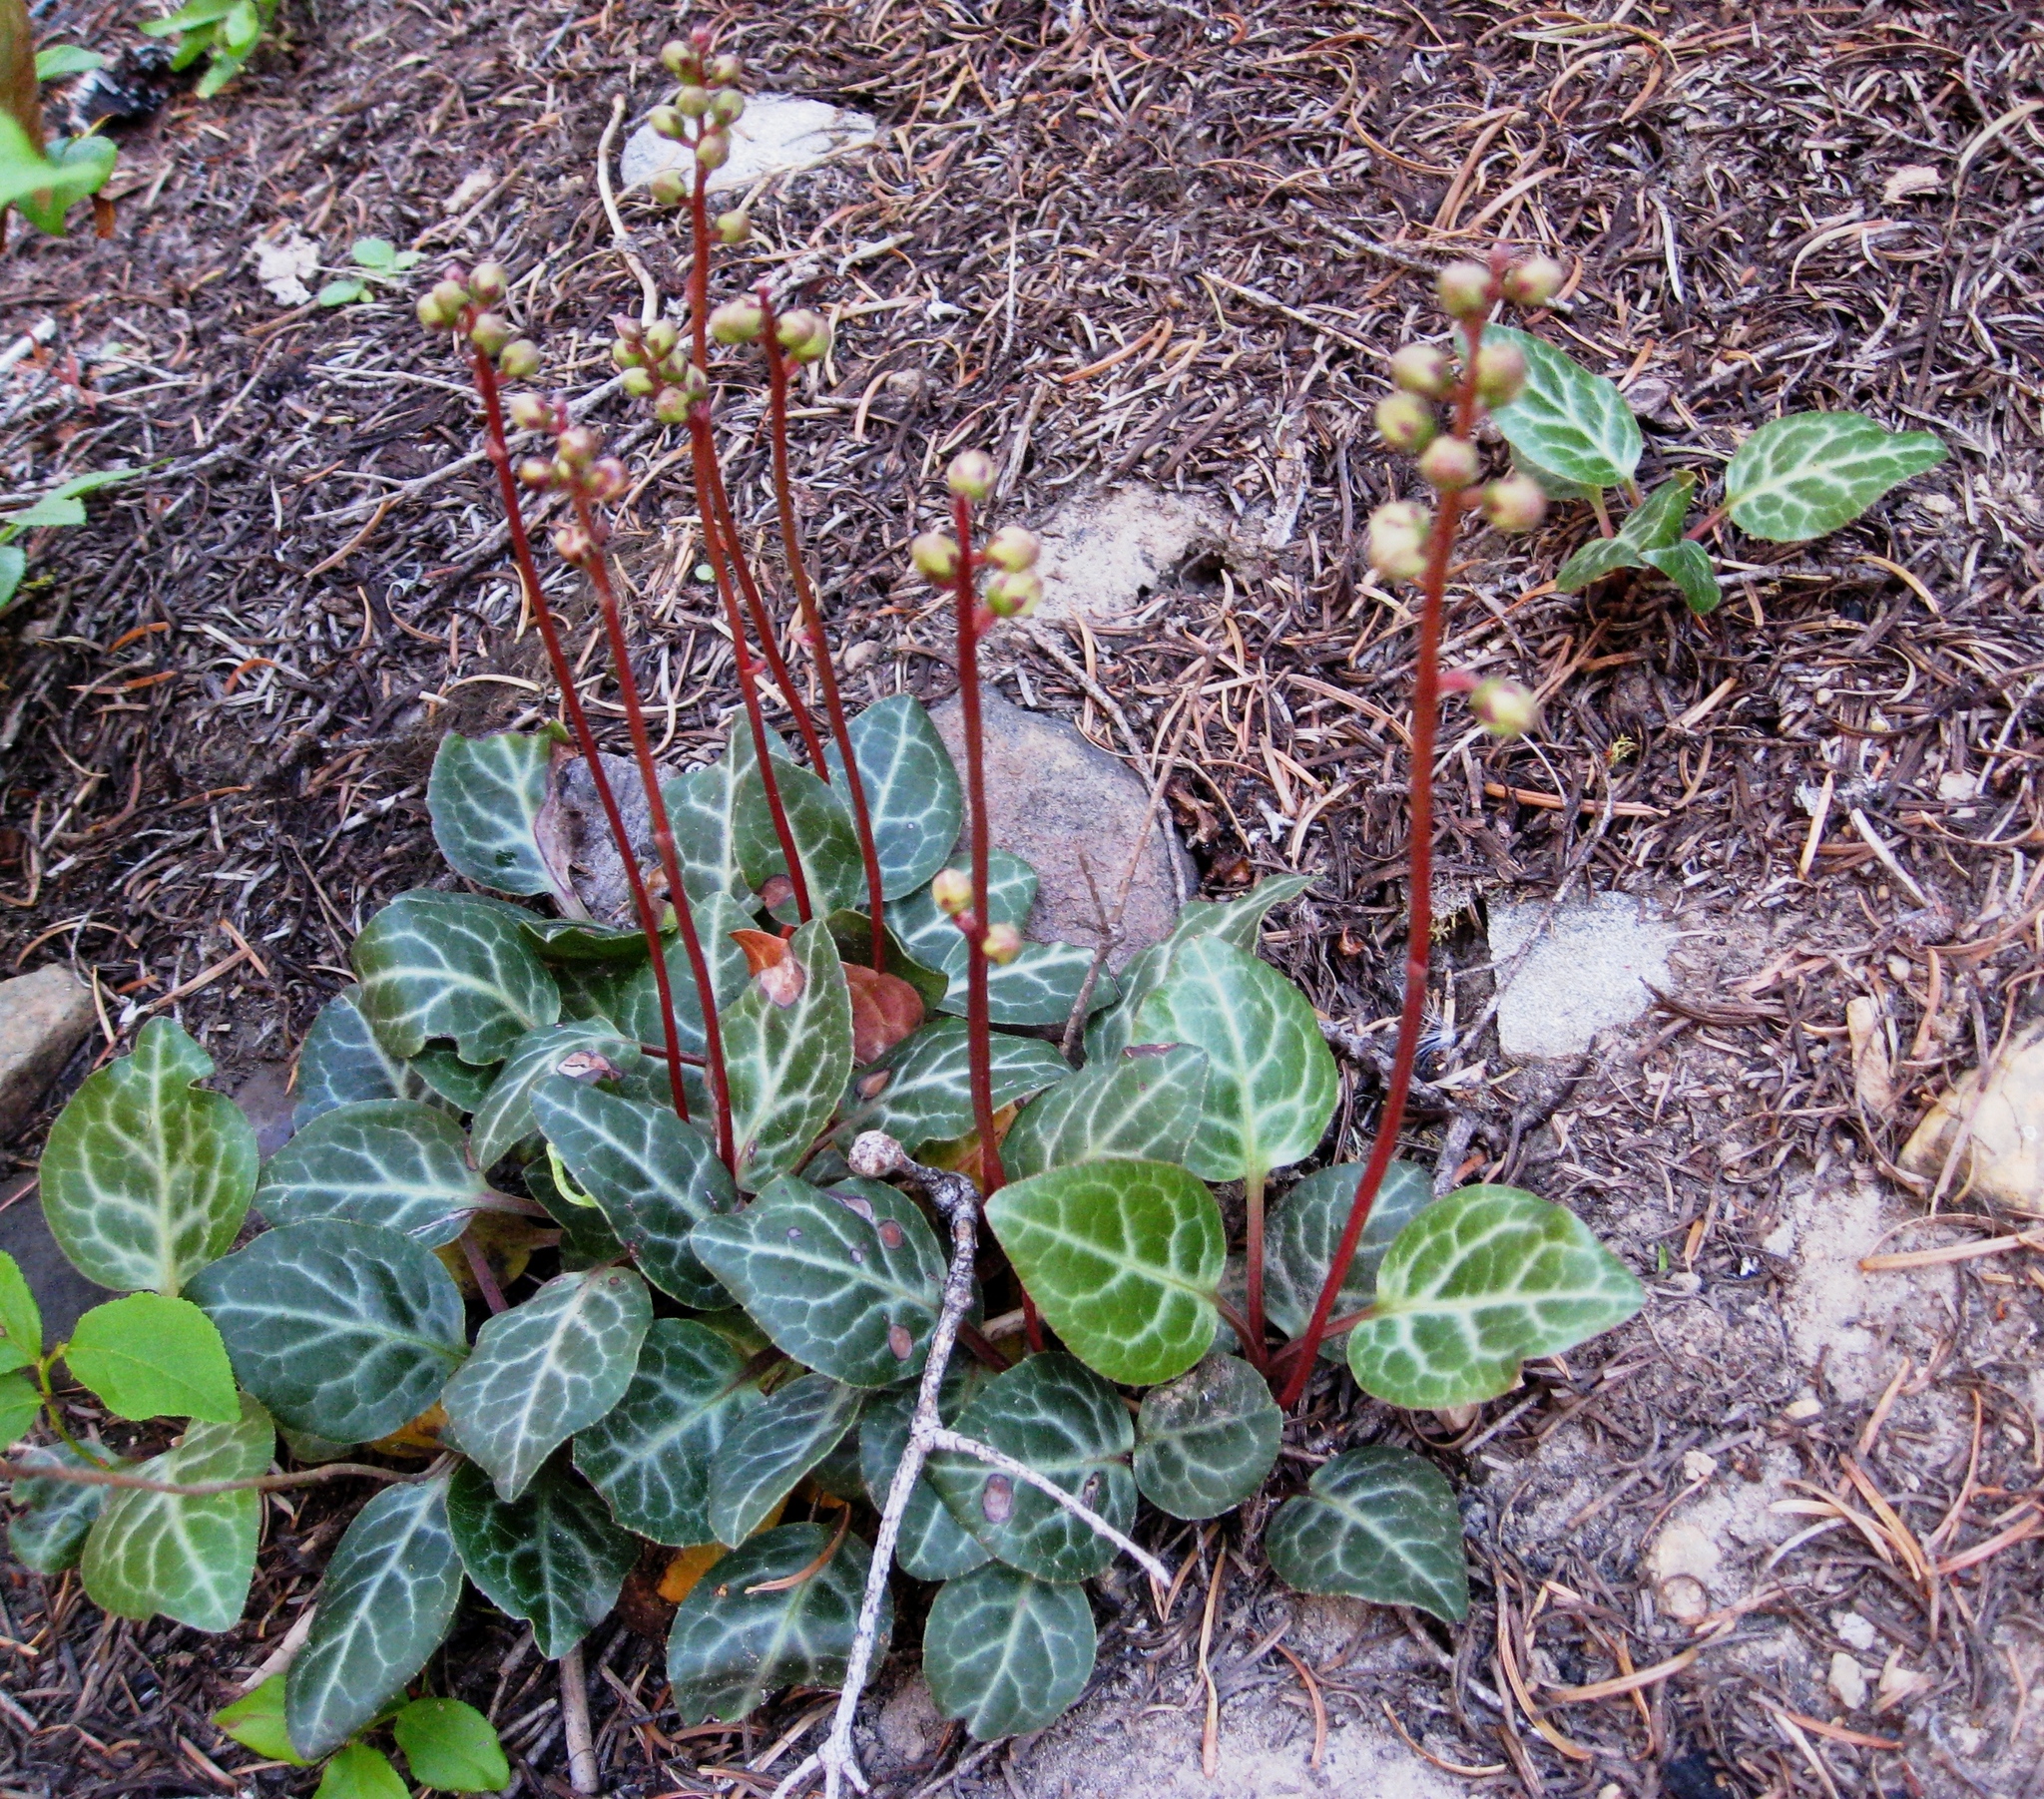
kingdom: Plantae
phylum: Tracheophyta
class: Magnoliopsida
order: Ericales
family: Ericaceae
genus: Pyrola
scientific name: Pyrola picta
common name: White-vein wintergreen
